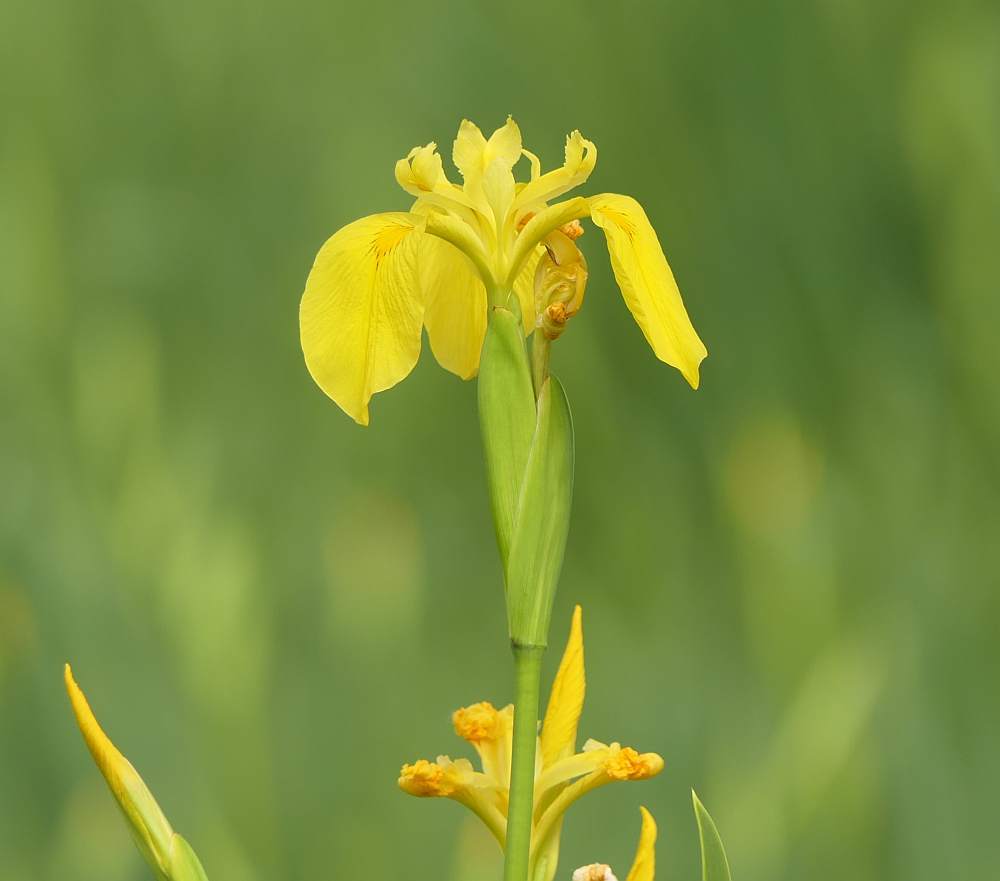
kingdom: Plantae
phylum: Tracheophyta
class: Liliopsida
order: Asparagales
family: Iridaceae
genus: Iris
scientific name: Iris pseudacorus
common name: Yellow flag
